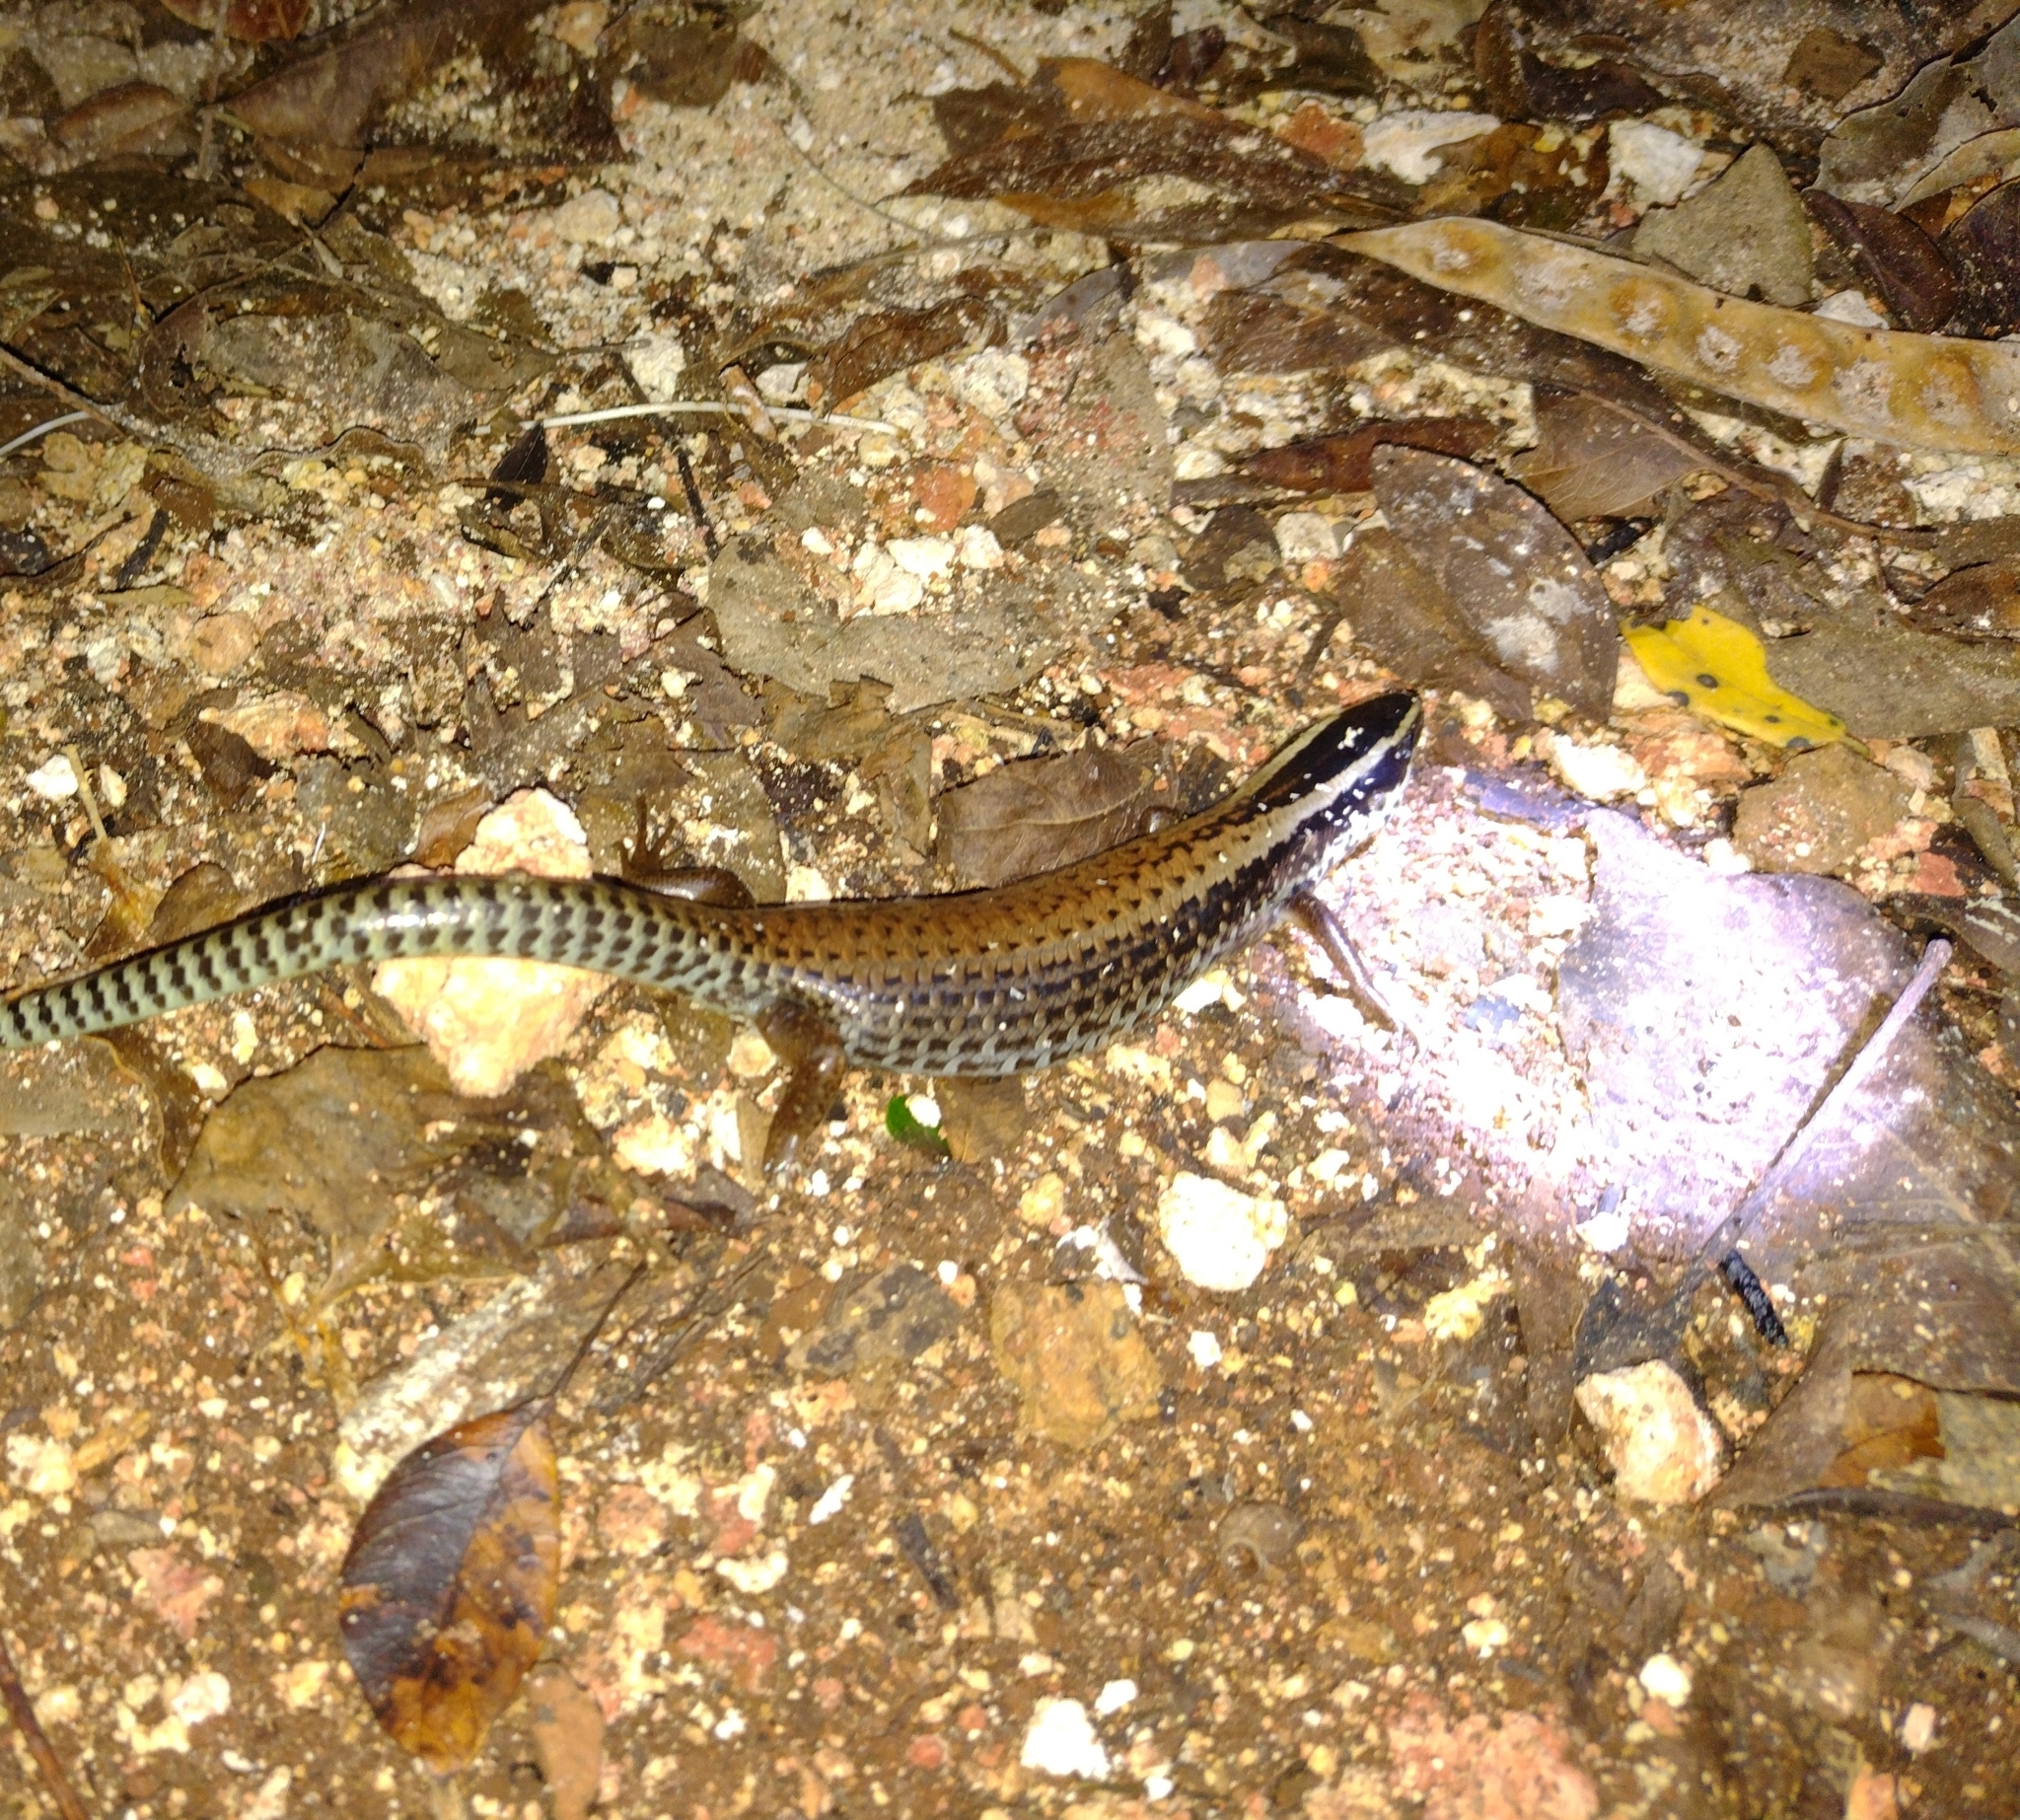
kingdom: Animalia
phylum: Chordata
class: Squamata
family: Scincidae
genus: Mesoscincus
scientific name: Mesoscincus schwartzei
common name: Mayan black-headed skink
